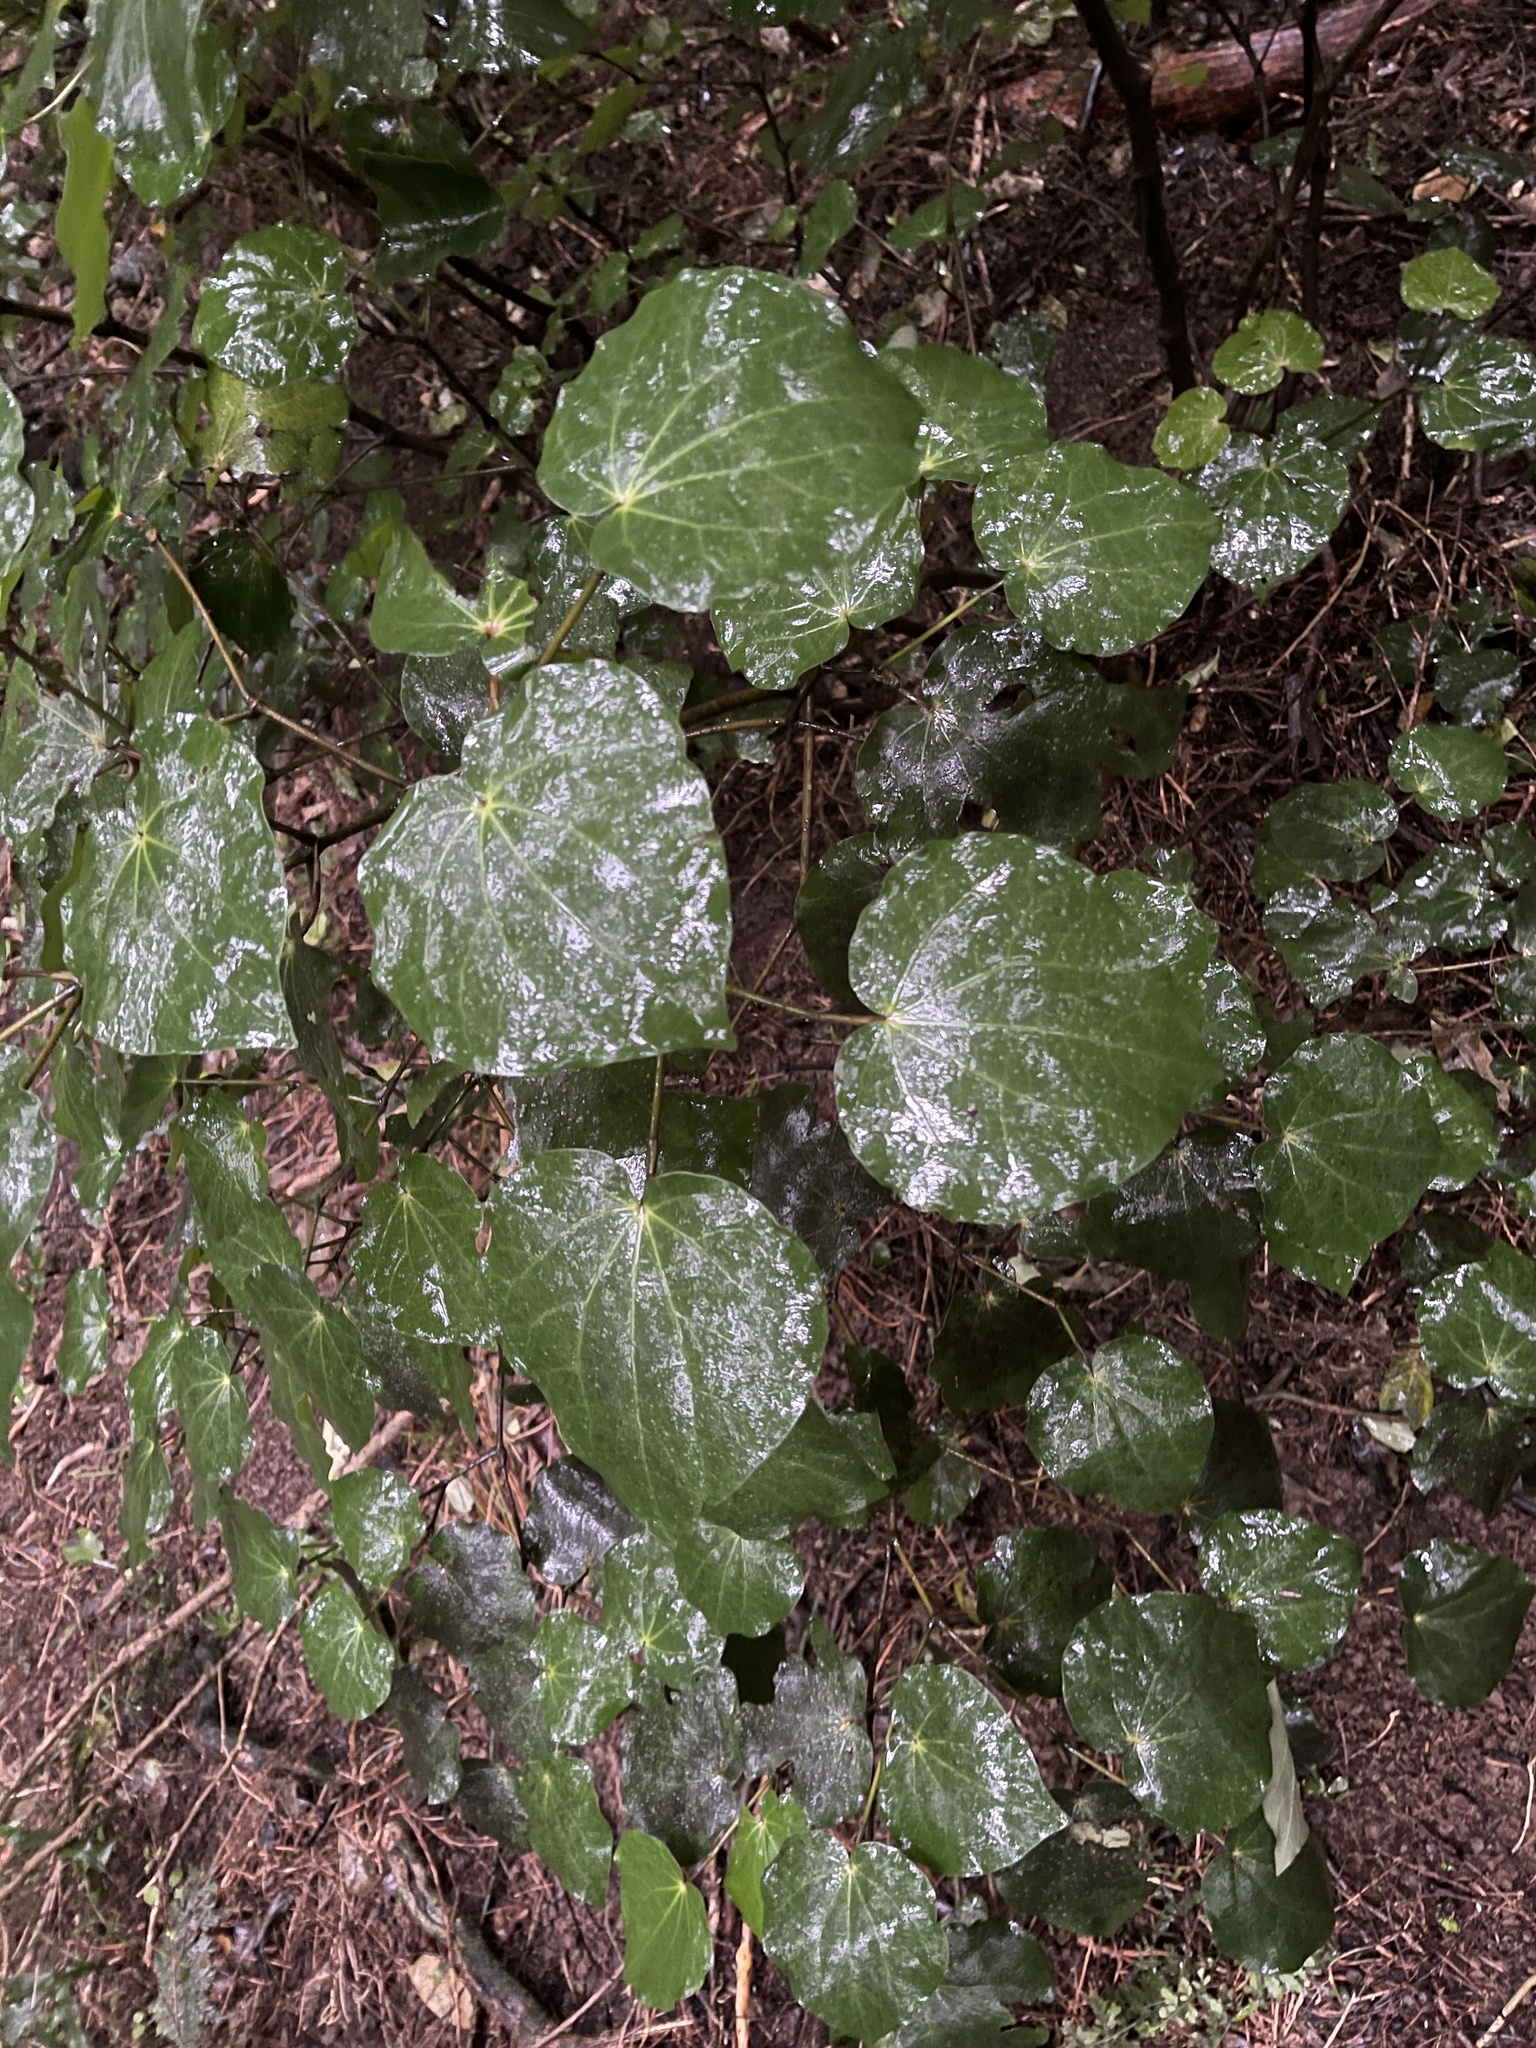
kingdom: Plantae
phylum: Tracheophyta
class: Magnoliopsida
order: Piperales
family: Piperaceae
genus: Macropiper
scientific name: Macropiper excelsum
